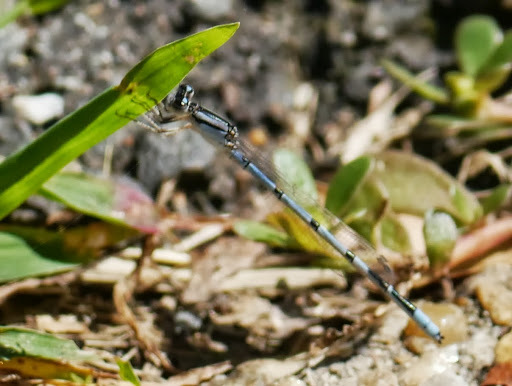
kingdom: Animalia
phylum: Arthropoda
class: Insecta
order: Odonata
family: Coenagrionidae
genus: Enallagma
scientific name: Enallagma civile
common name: Damselfly
